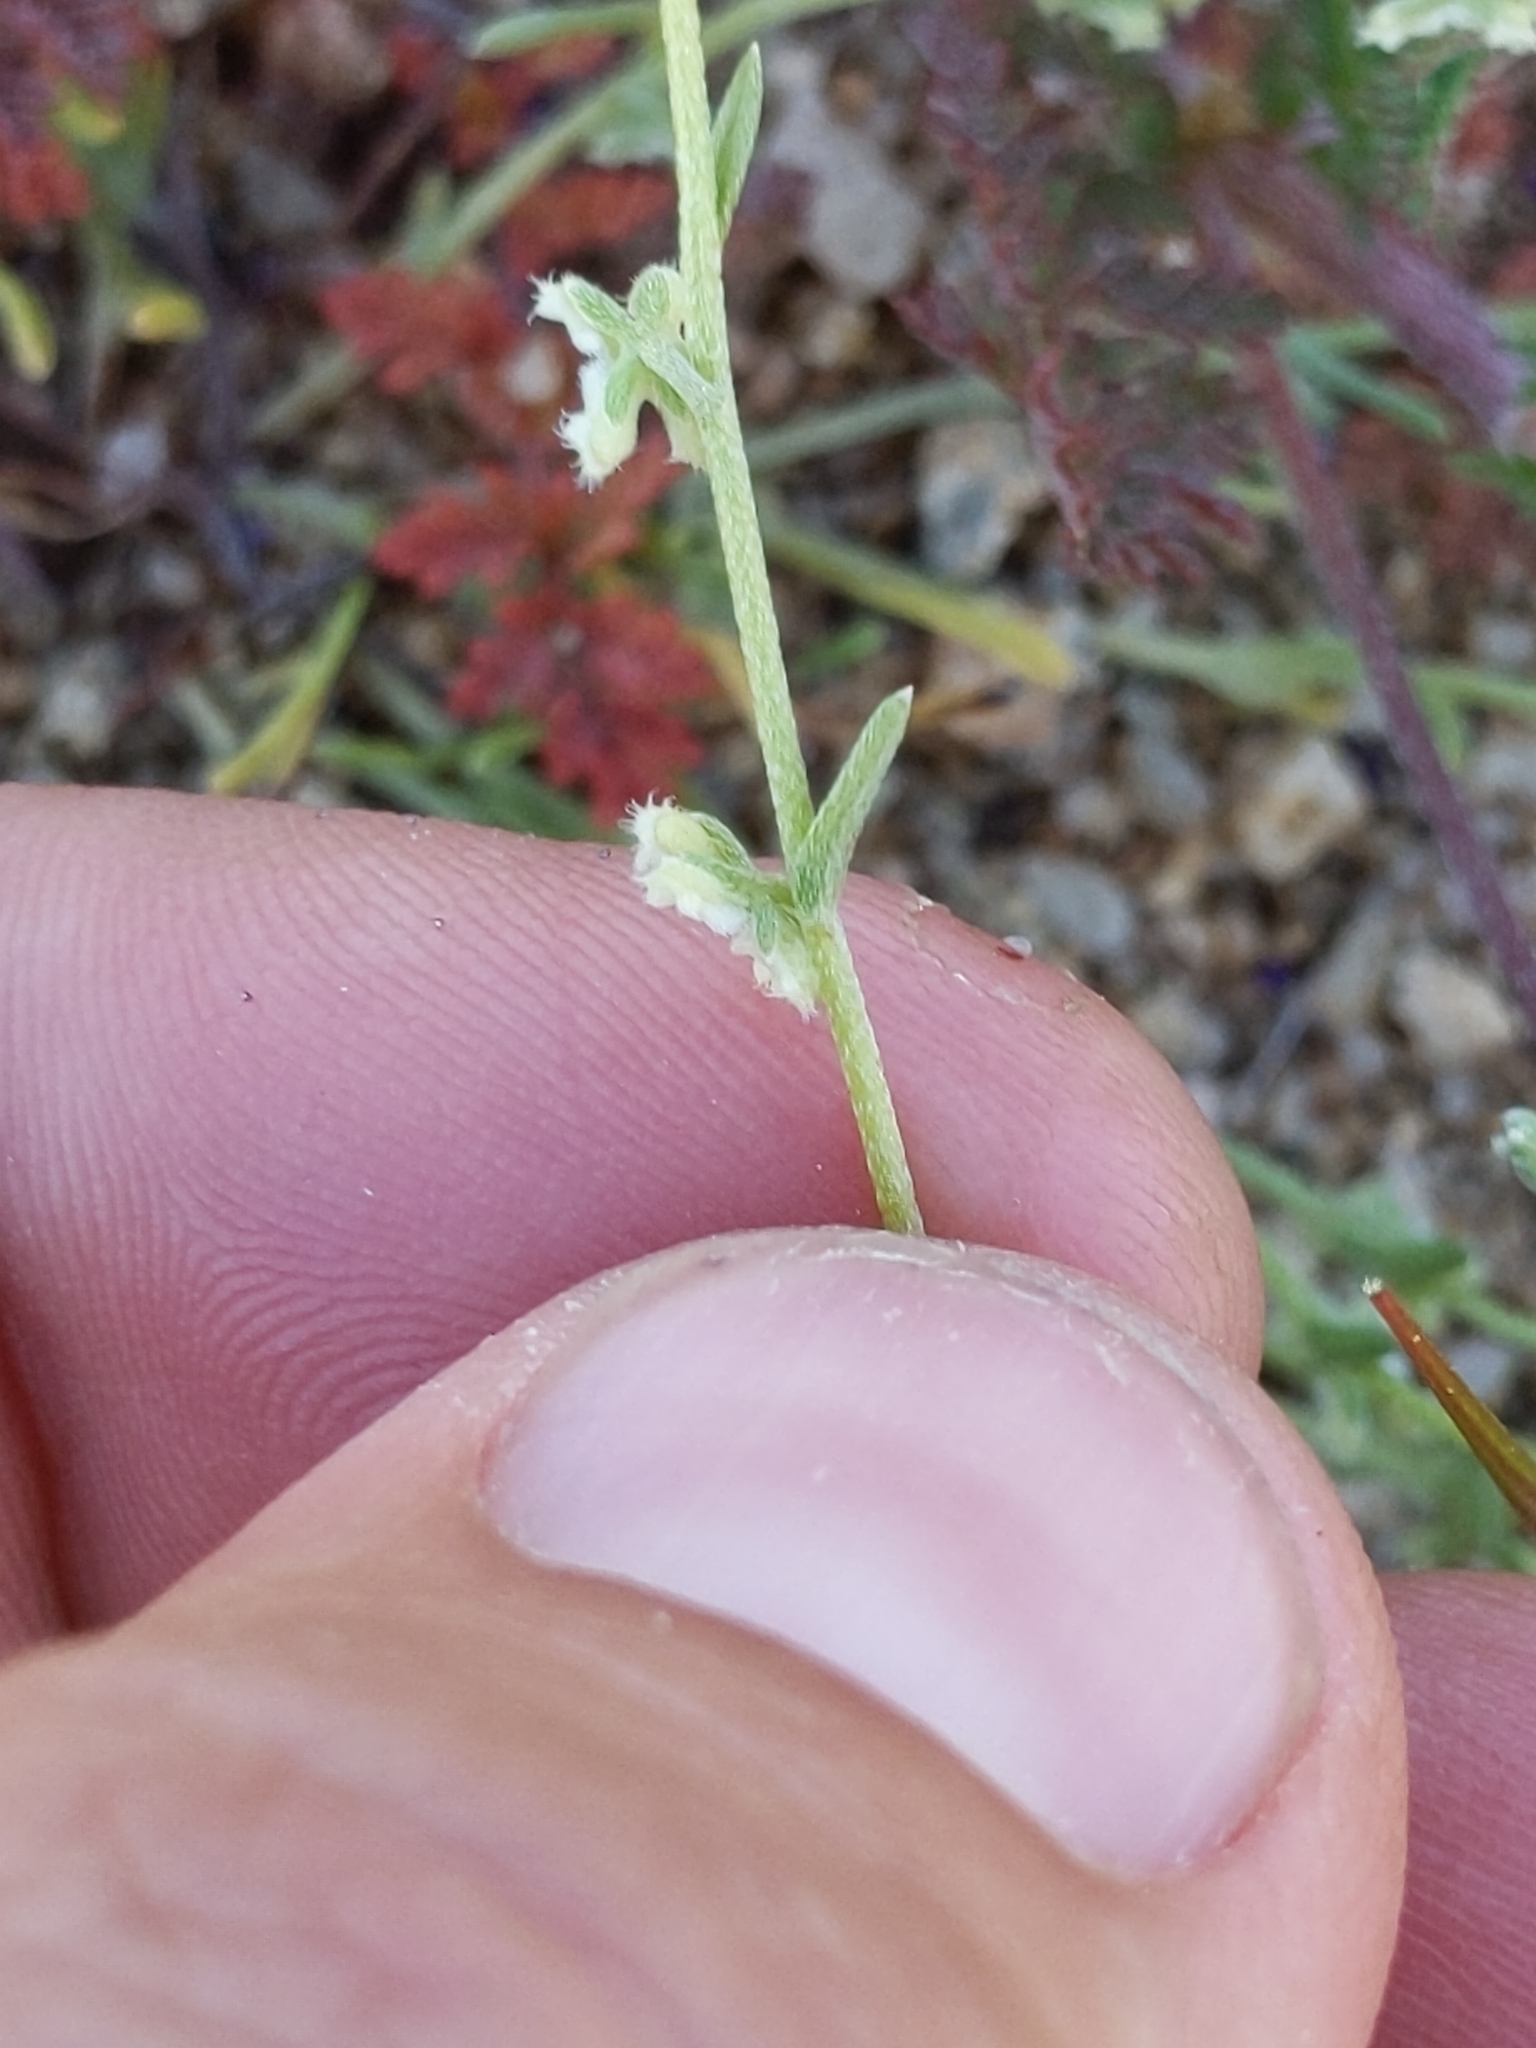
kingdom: Plantae
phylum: Tracheophyta
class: Magnoliopsida
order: Boraginales
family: Boraginaceae
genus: Pectocarya
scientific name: Pectocarya penicillata
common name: Short-leaved combseed
